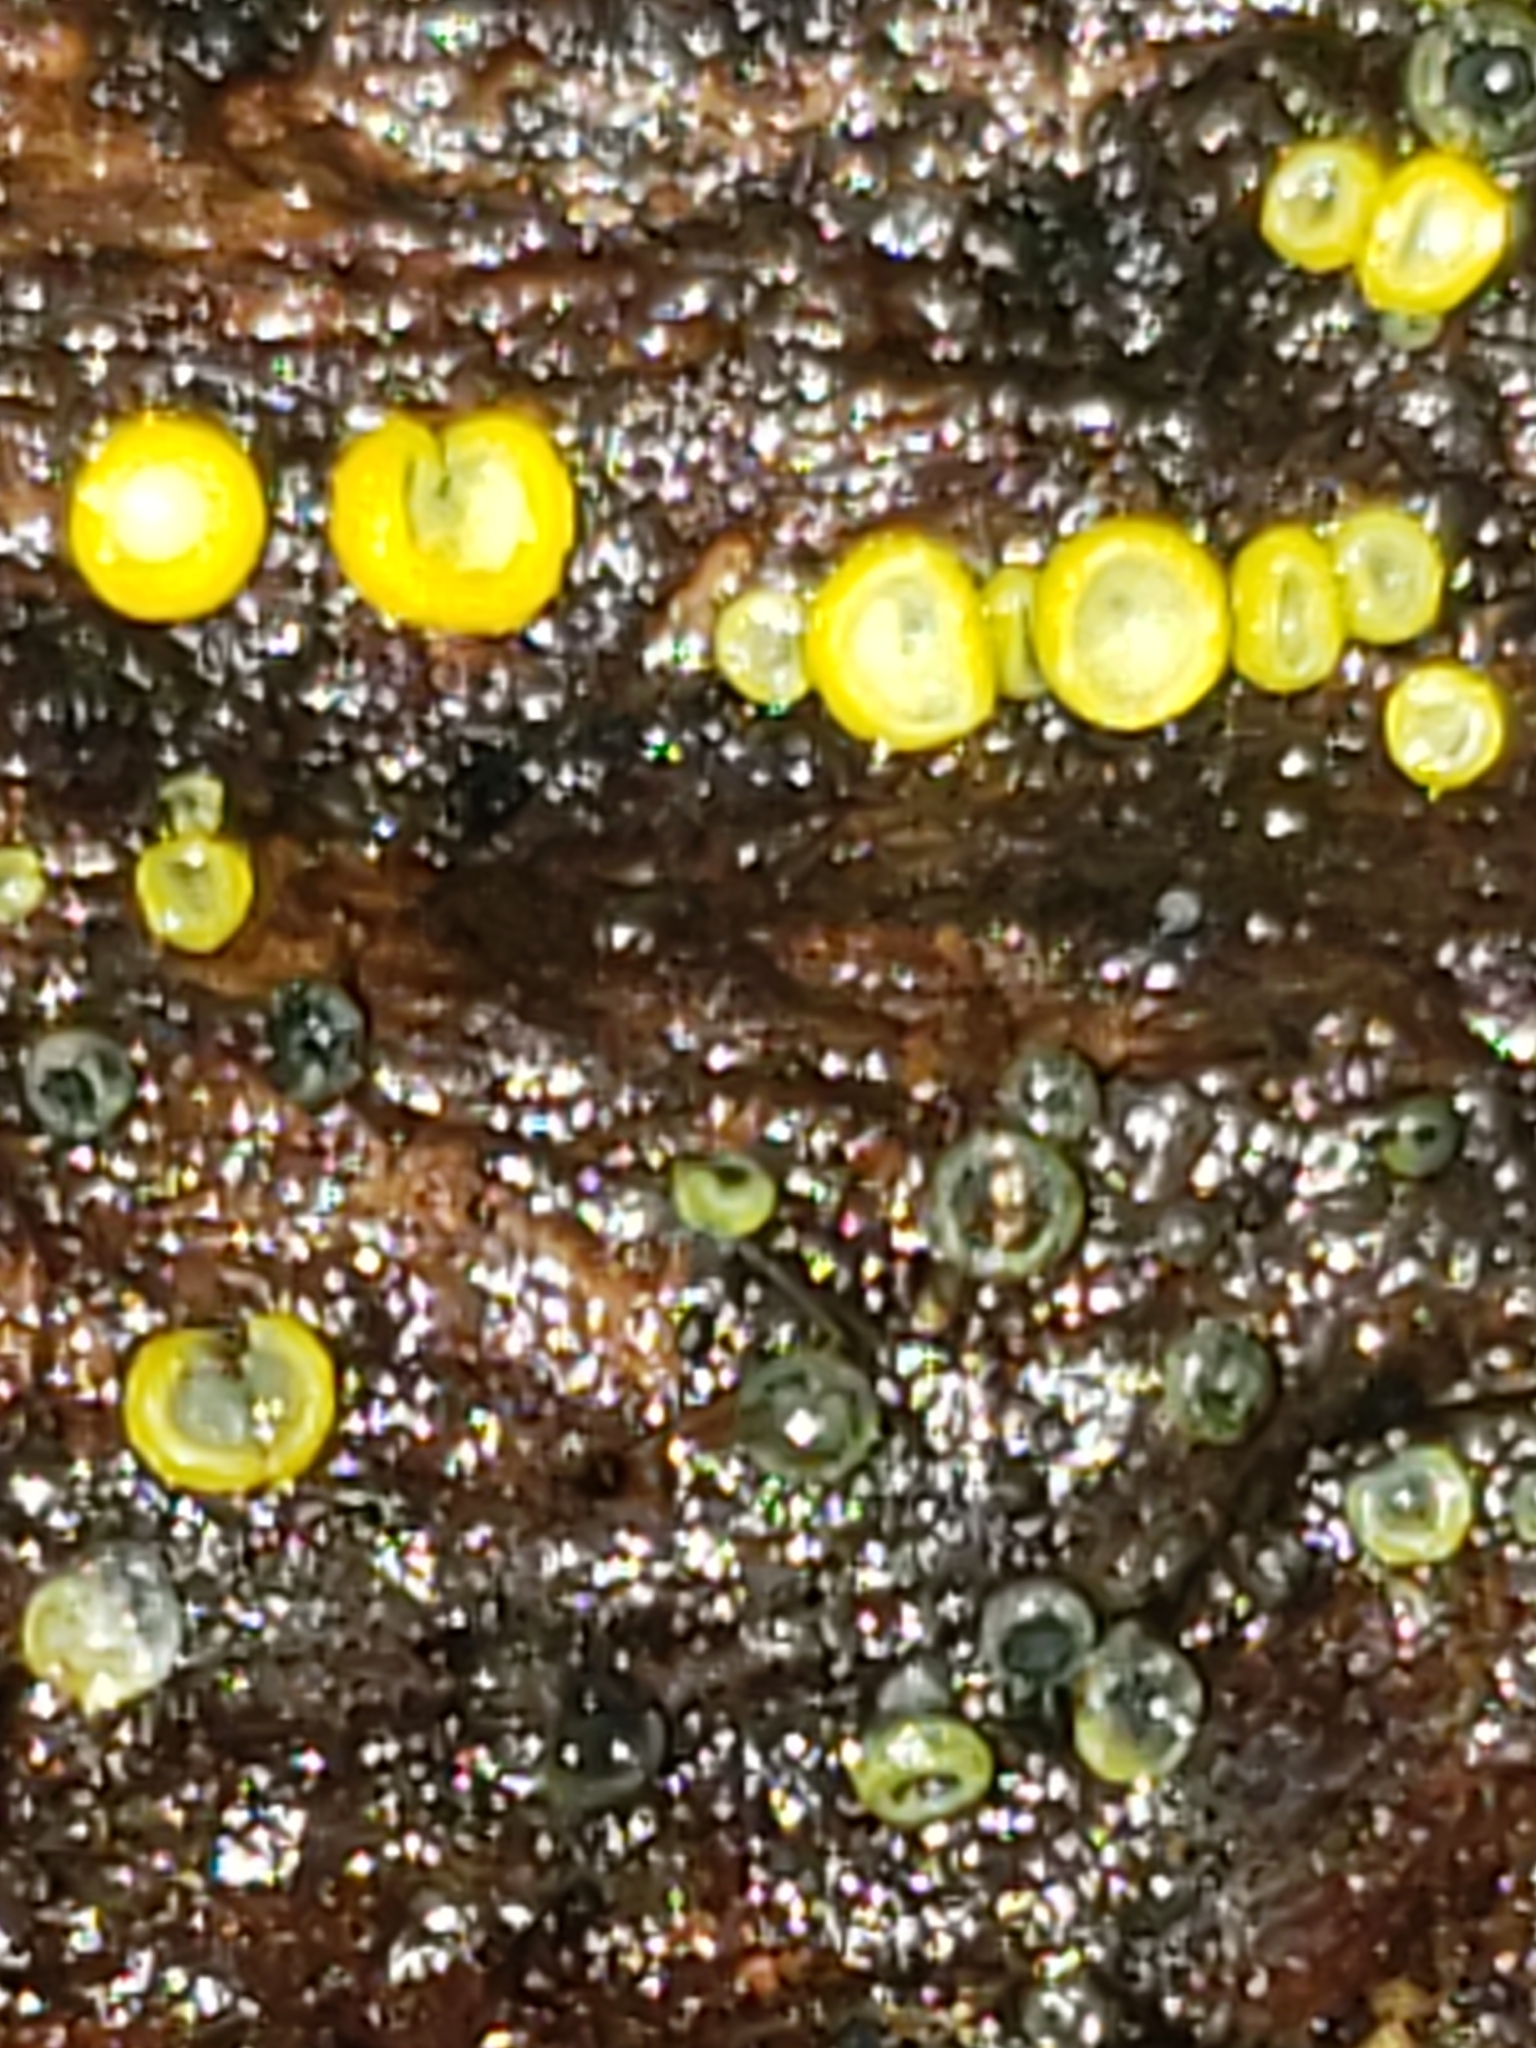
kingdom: Fungi
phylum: Ascomycota
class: Leotiomycetes
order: Helotiales
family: Chlorospleniaceae
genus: Chlorosplenium
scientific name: Chlorosplenium chlora
